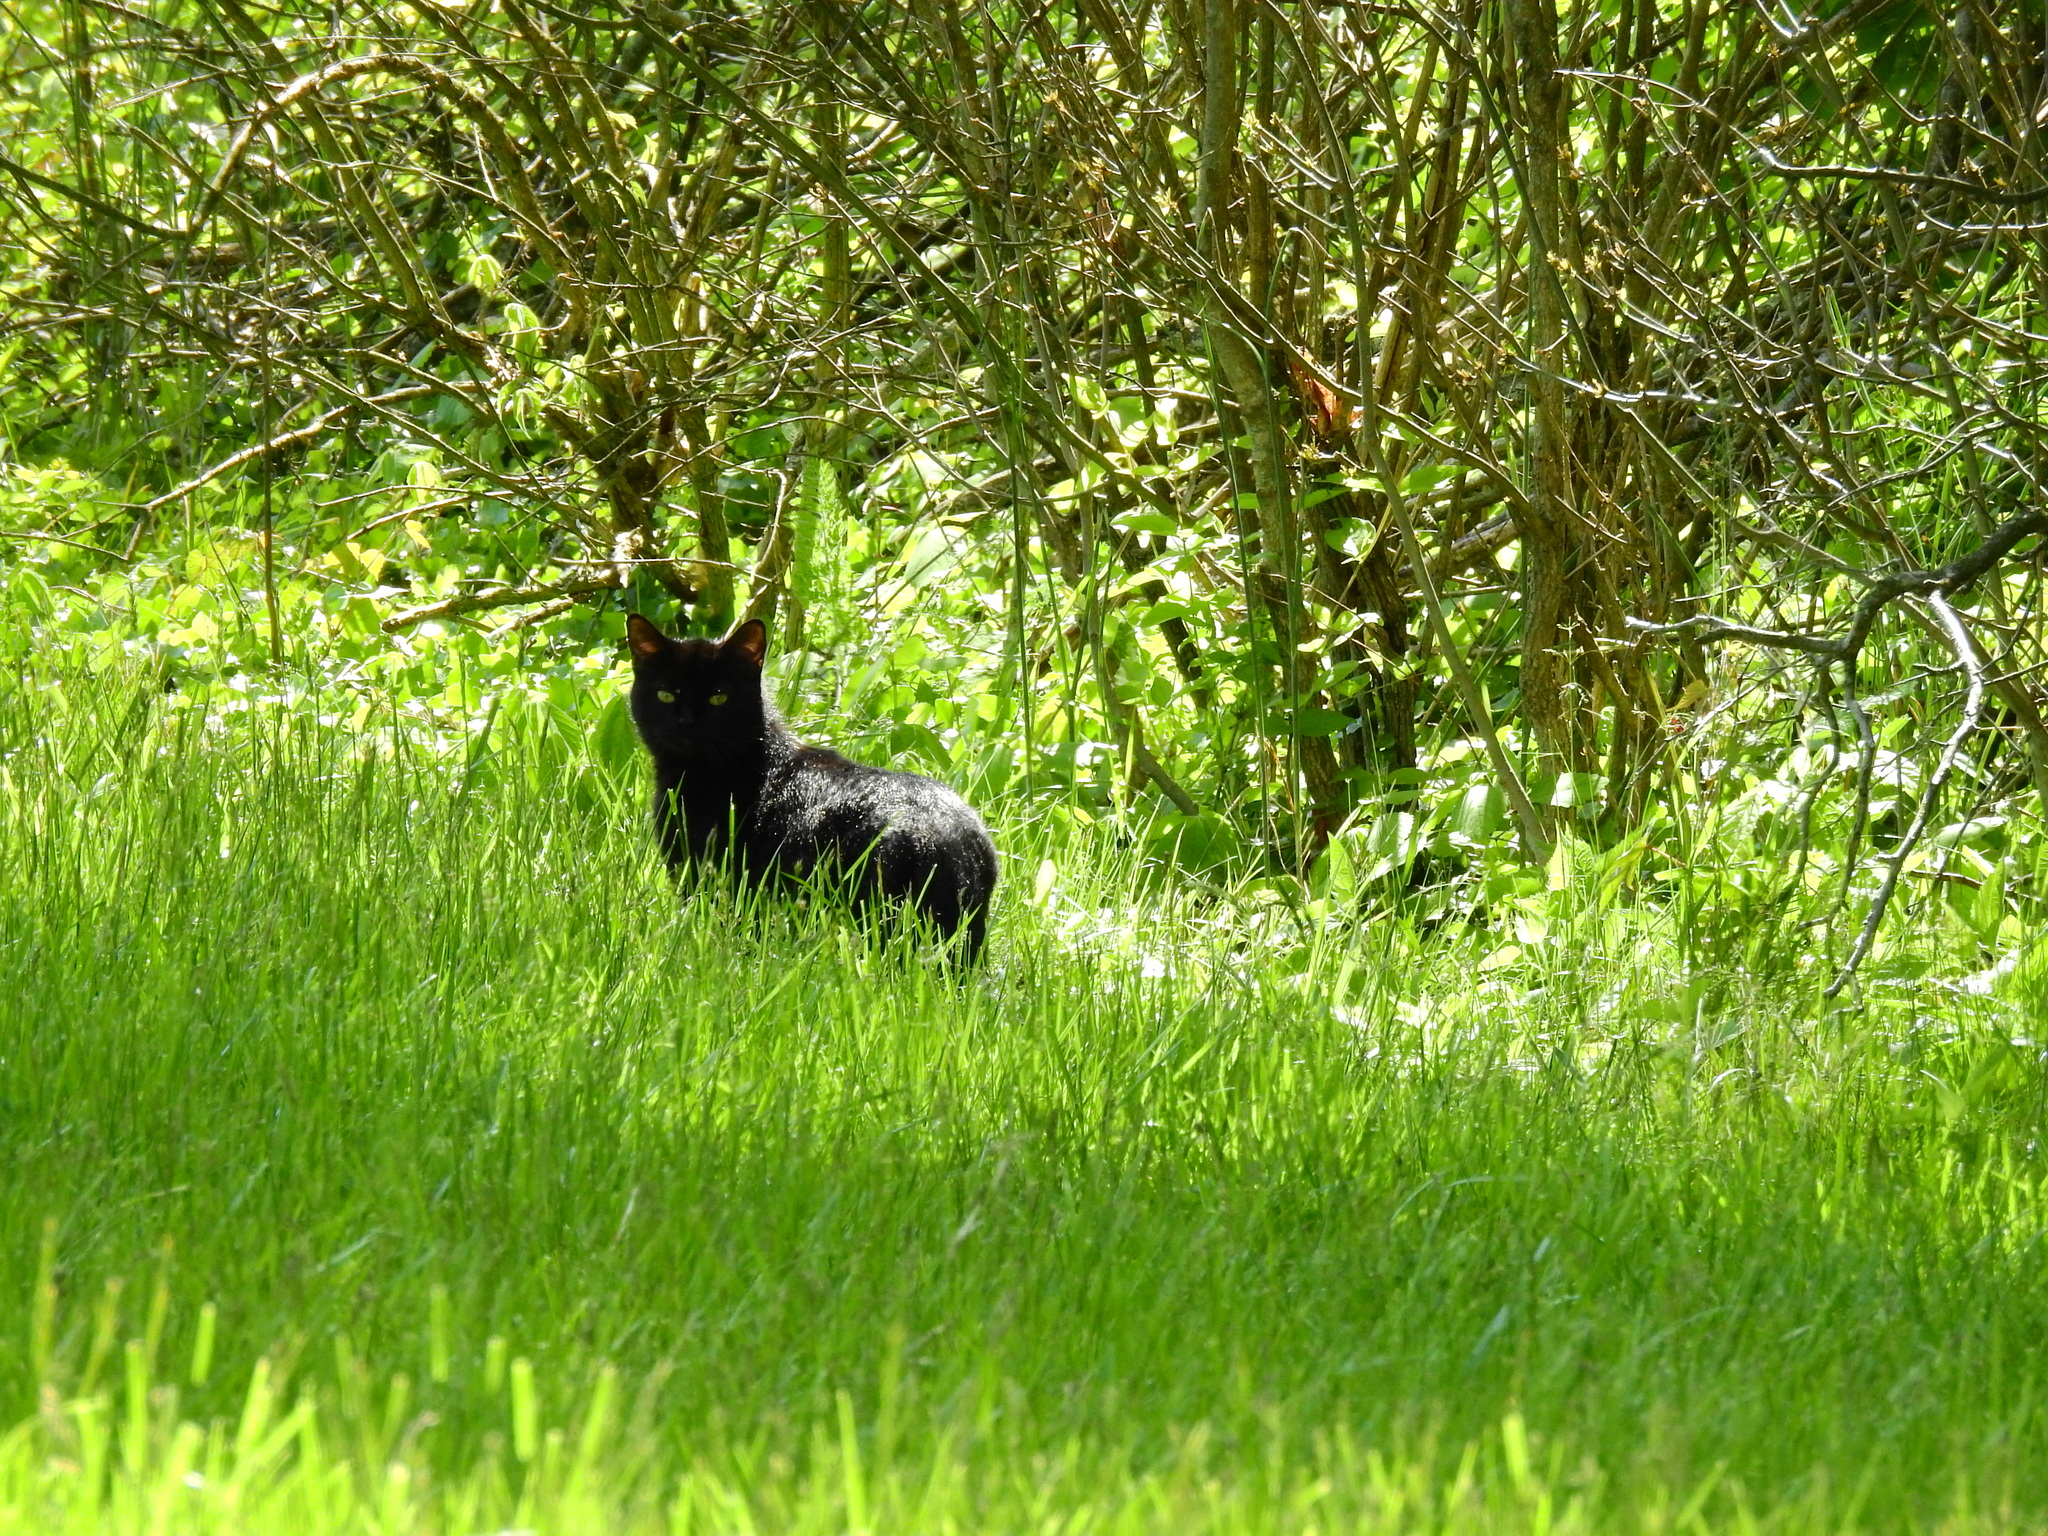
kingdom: Animalia
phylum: Chordata
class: Mammalia
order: Carnivora
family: Felidae
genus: Felis
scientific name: Felis catus
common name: Domestic cat
